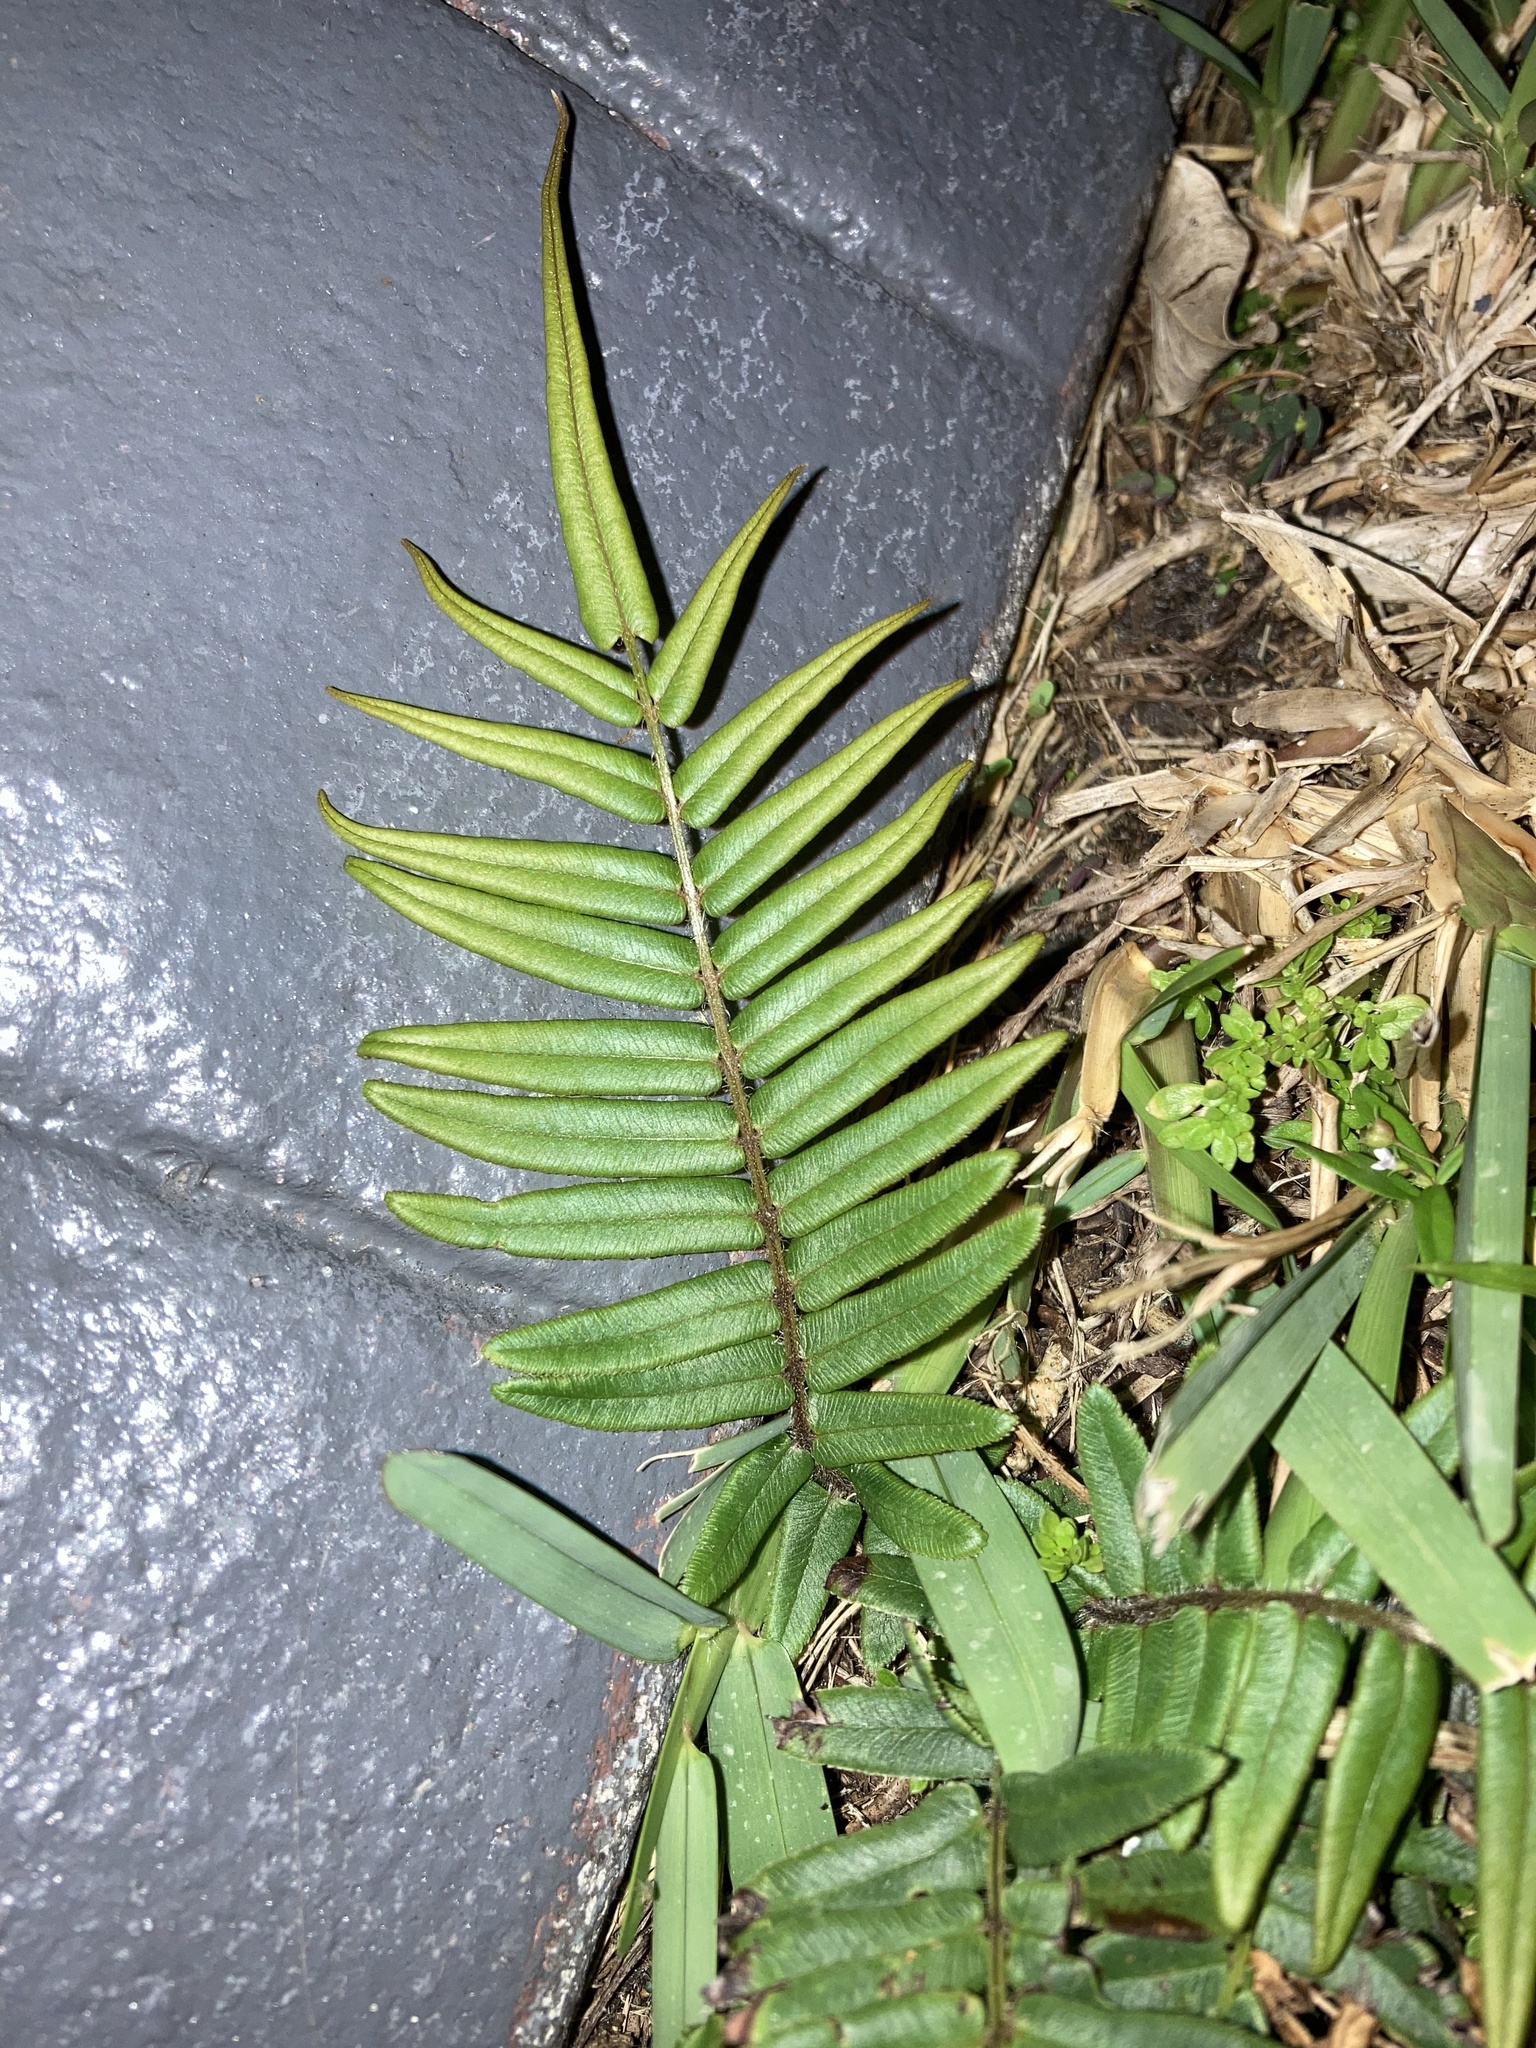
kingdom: Plantae
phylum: Tracheophyta
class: Polypodiopsida
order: Polypodiales
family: Pteridaceae
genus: Pteris
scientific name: Pteris vittata
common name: Ladder brake
